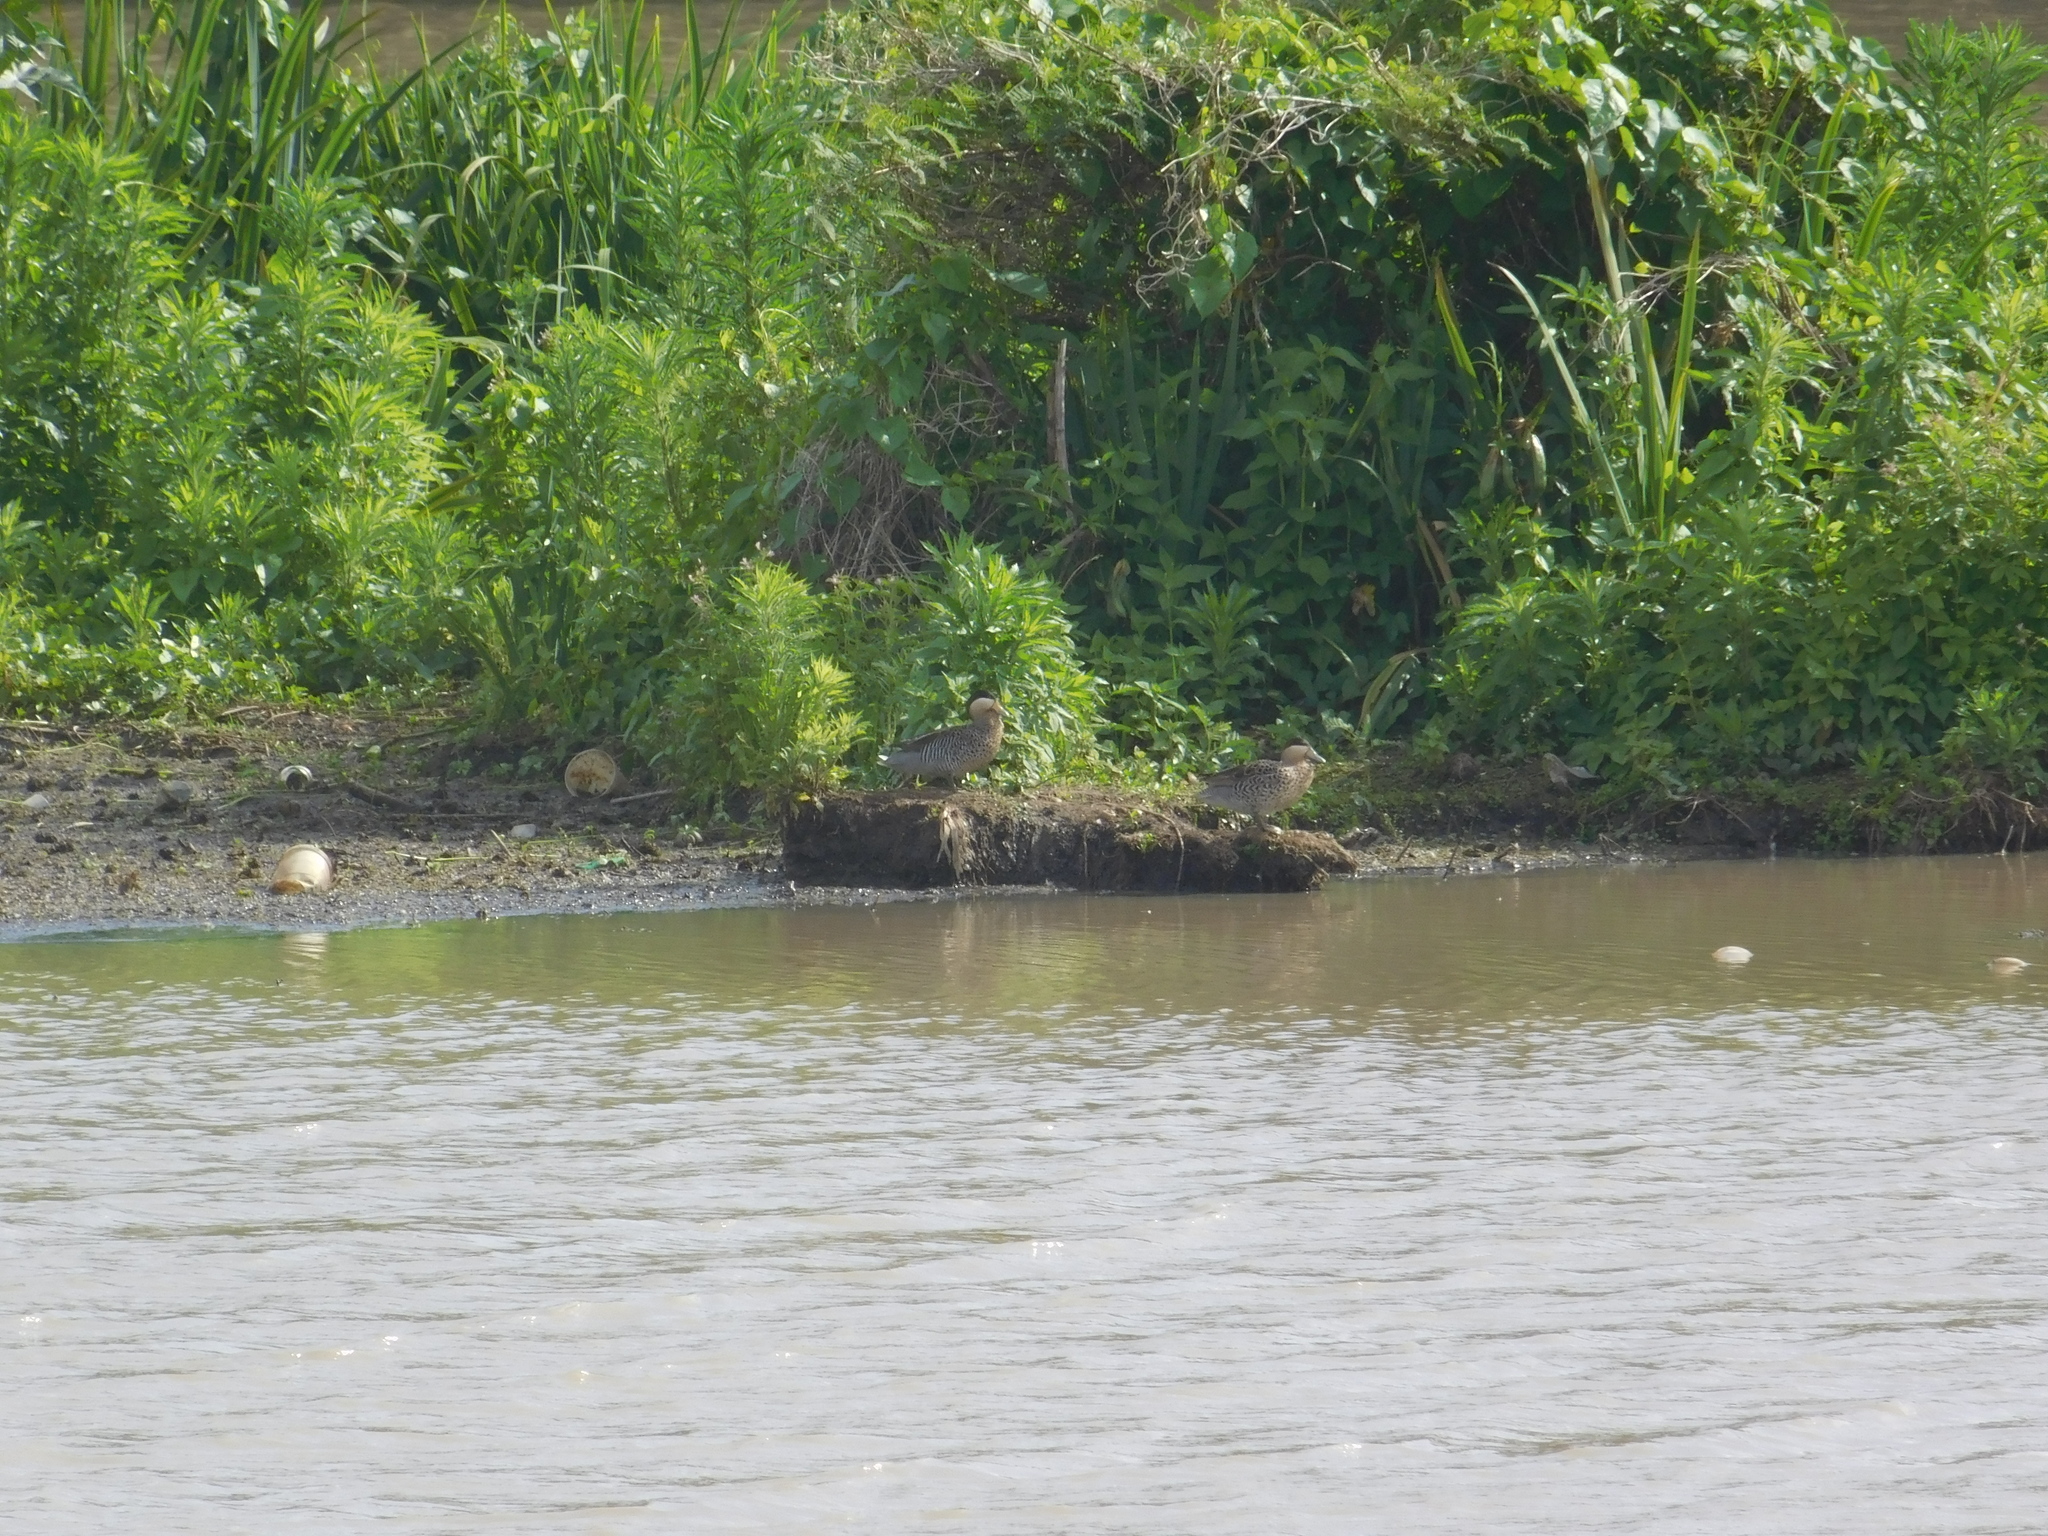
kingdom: Animalia
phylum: Chordata
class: Aves
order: Anseriformes
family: Anatidae
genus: Spatula
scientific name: Spatula versicolor
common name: Silver teal
